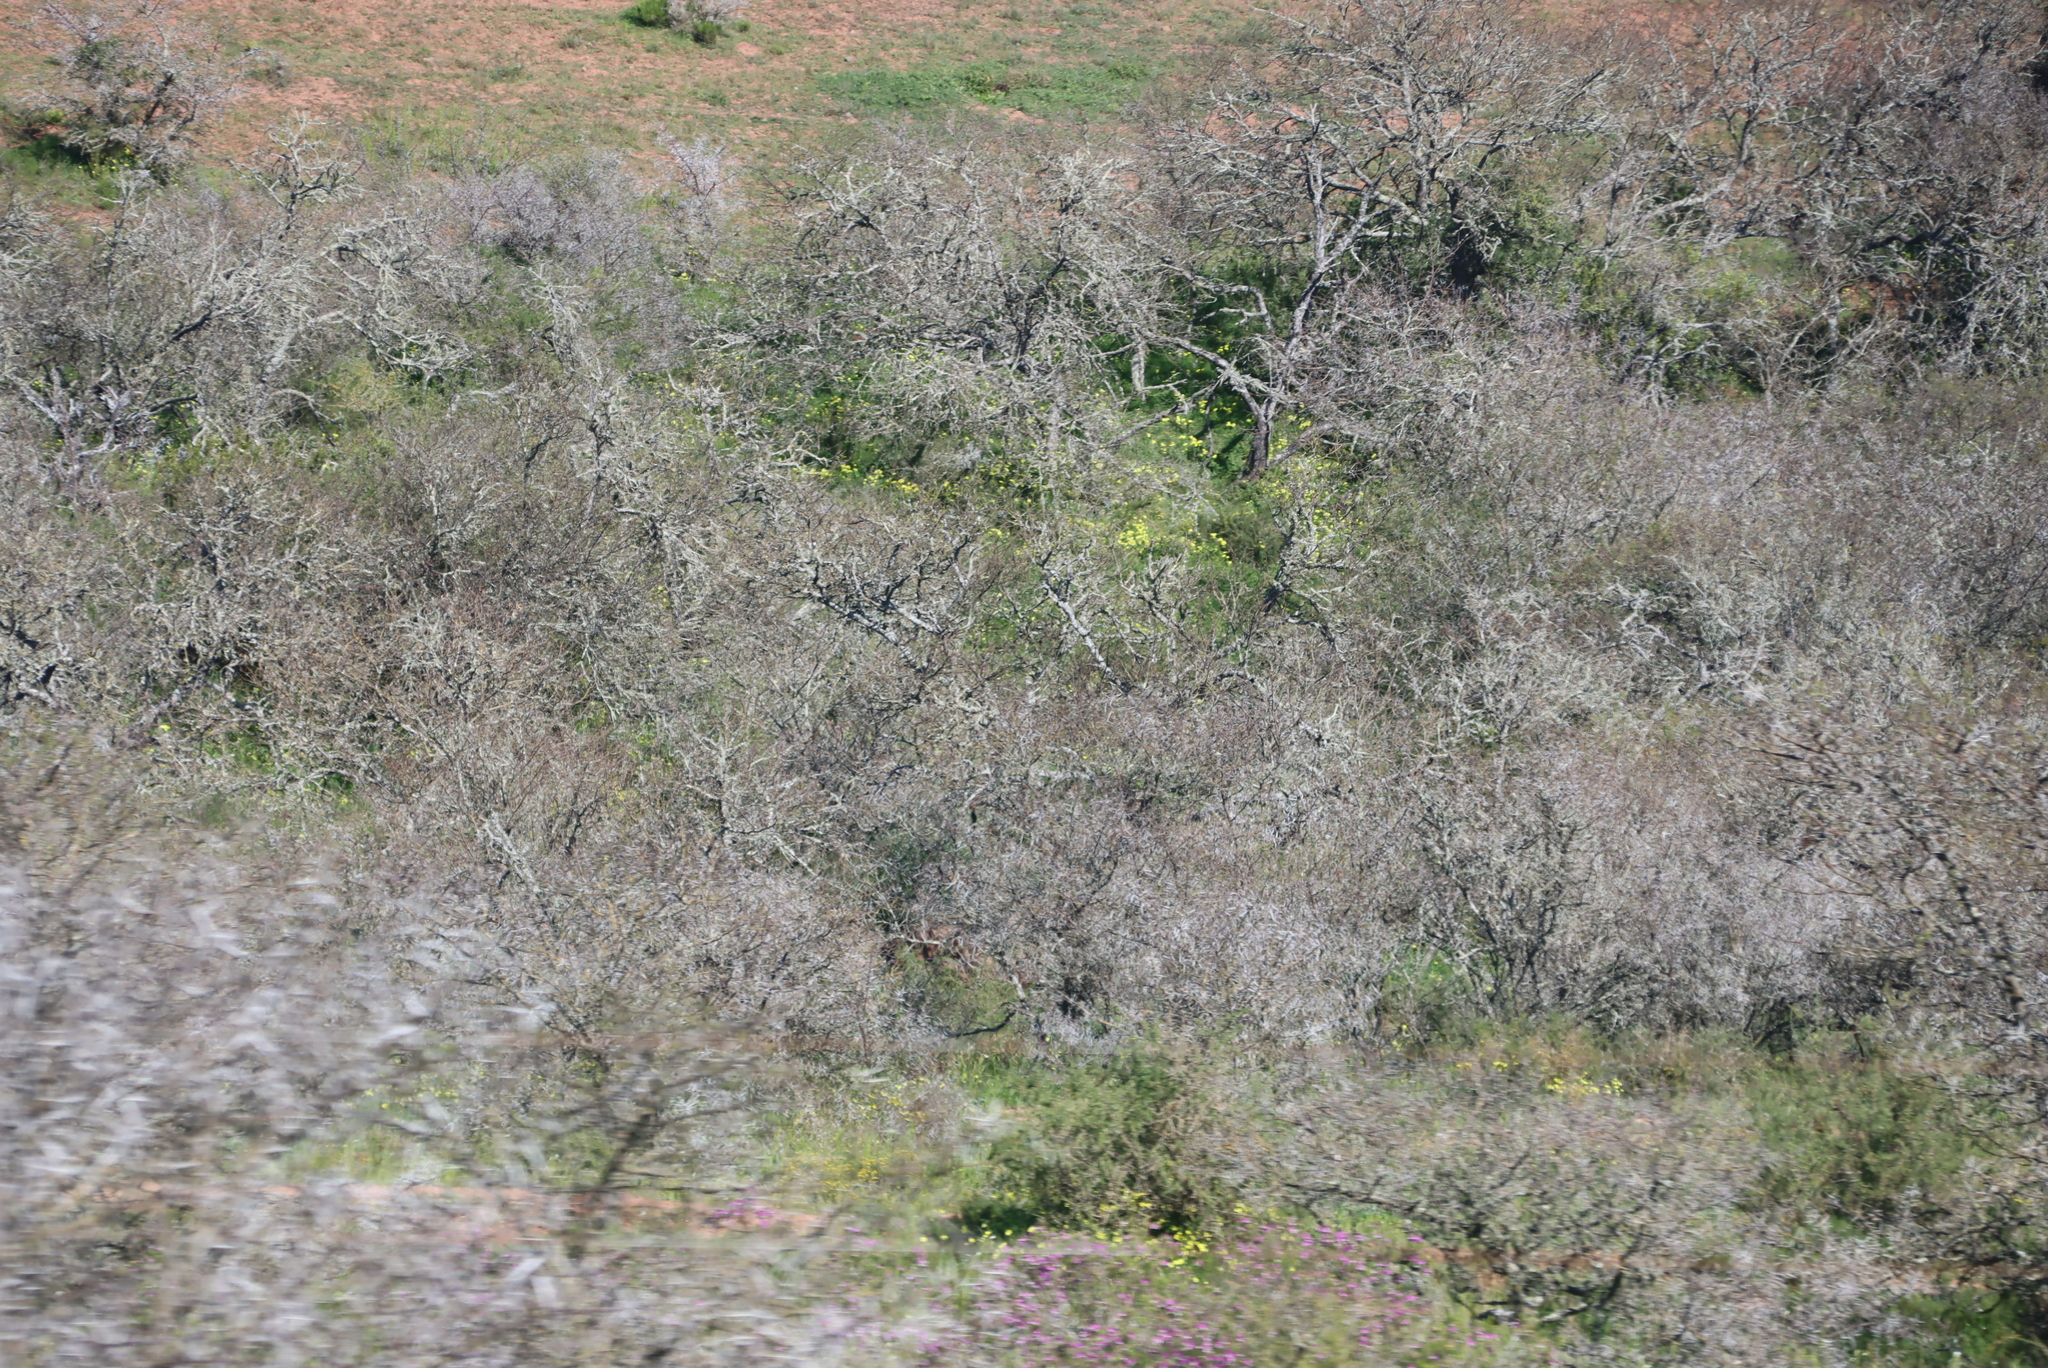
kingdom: Plantae
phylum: Tracheophyta
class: Magnoliopsida
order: Fabales
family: Fabaceae
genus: Vachellia
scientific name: Vachellia karroo
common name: Sweet thorn
